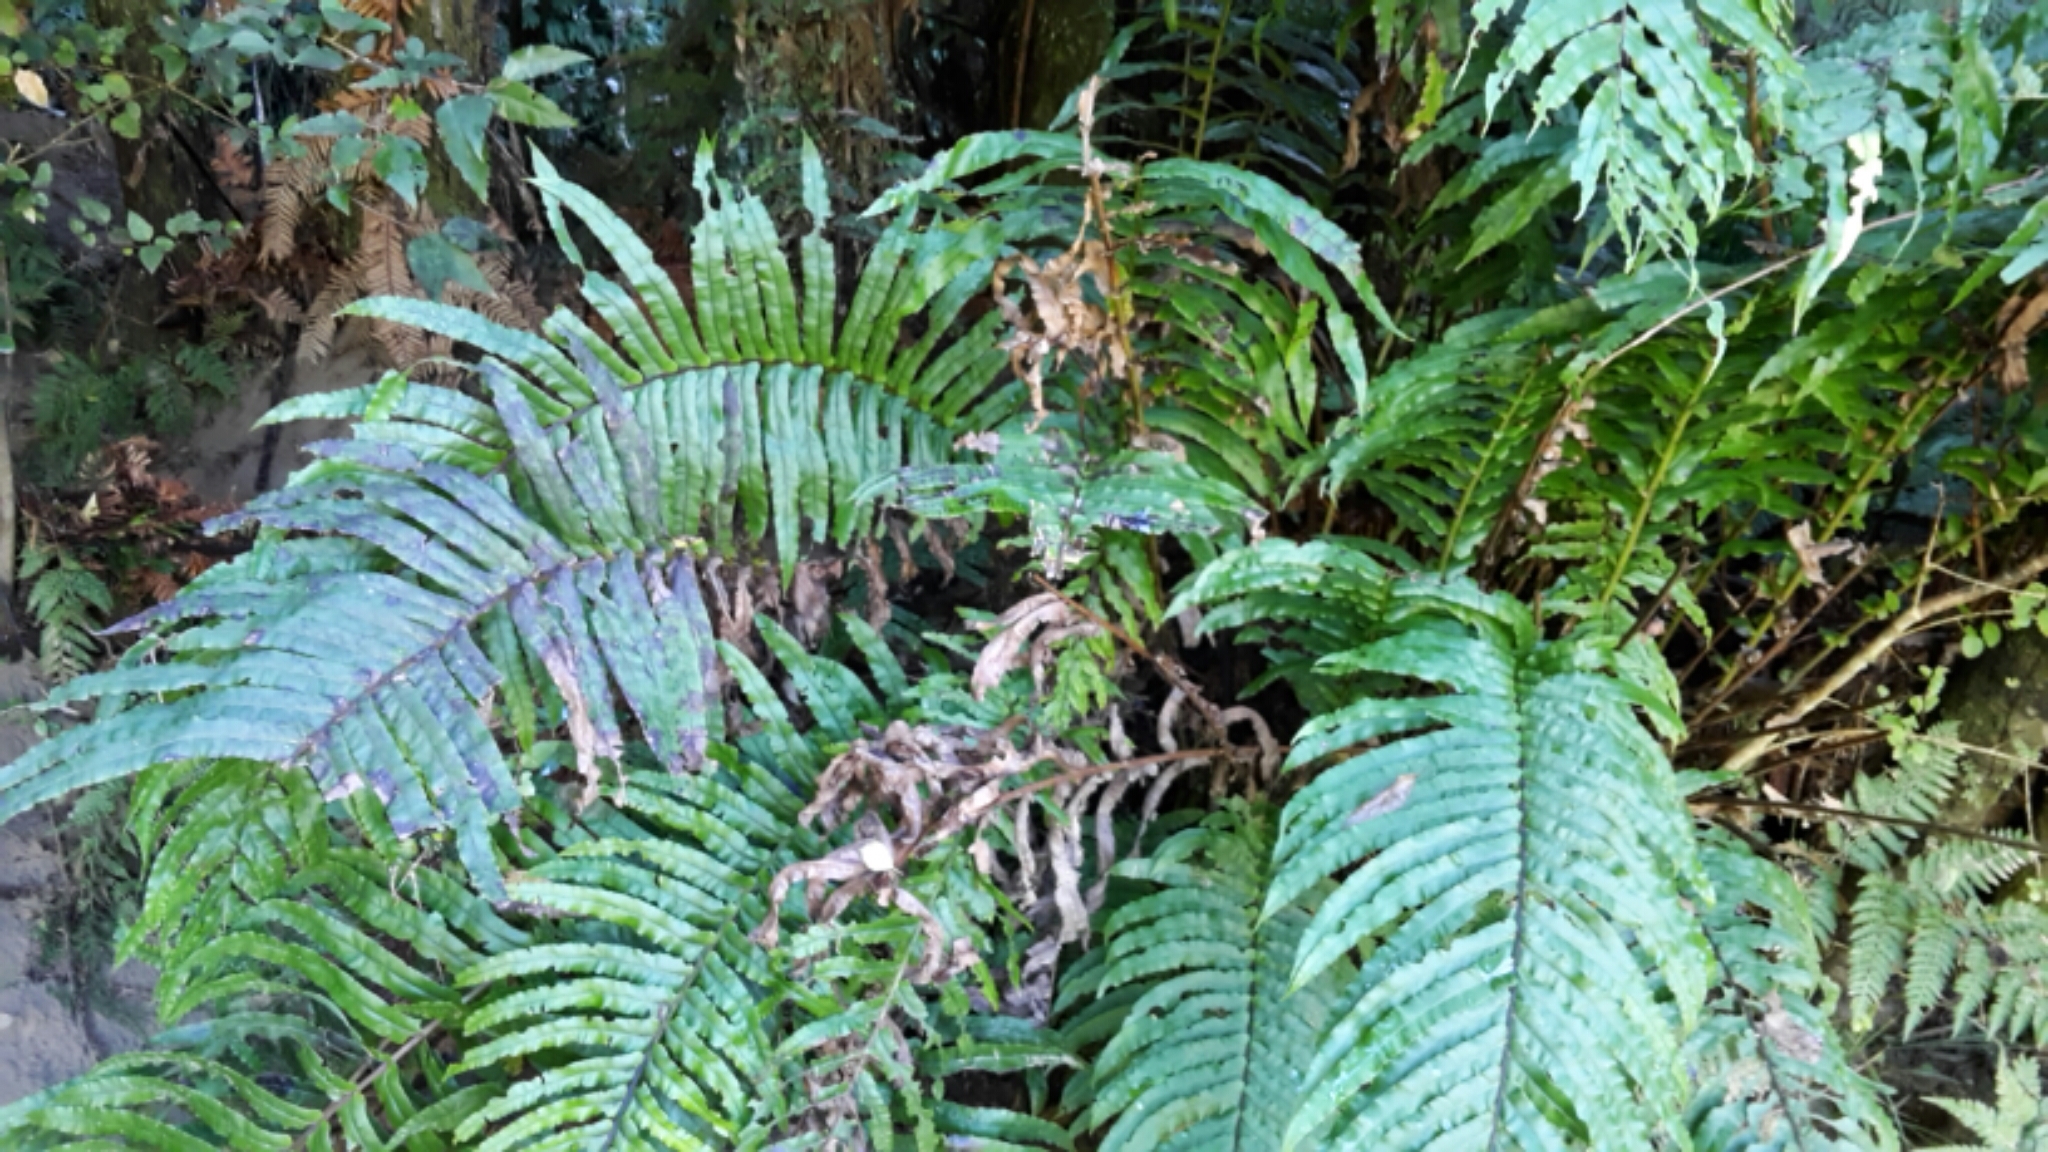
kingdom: Plantae
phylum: Tracheophyta
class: Polypodiopsida
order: Polypodiales
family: Blechnaceae
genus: Parablechnum
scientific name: Parablechnum novae-zelandiae
